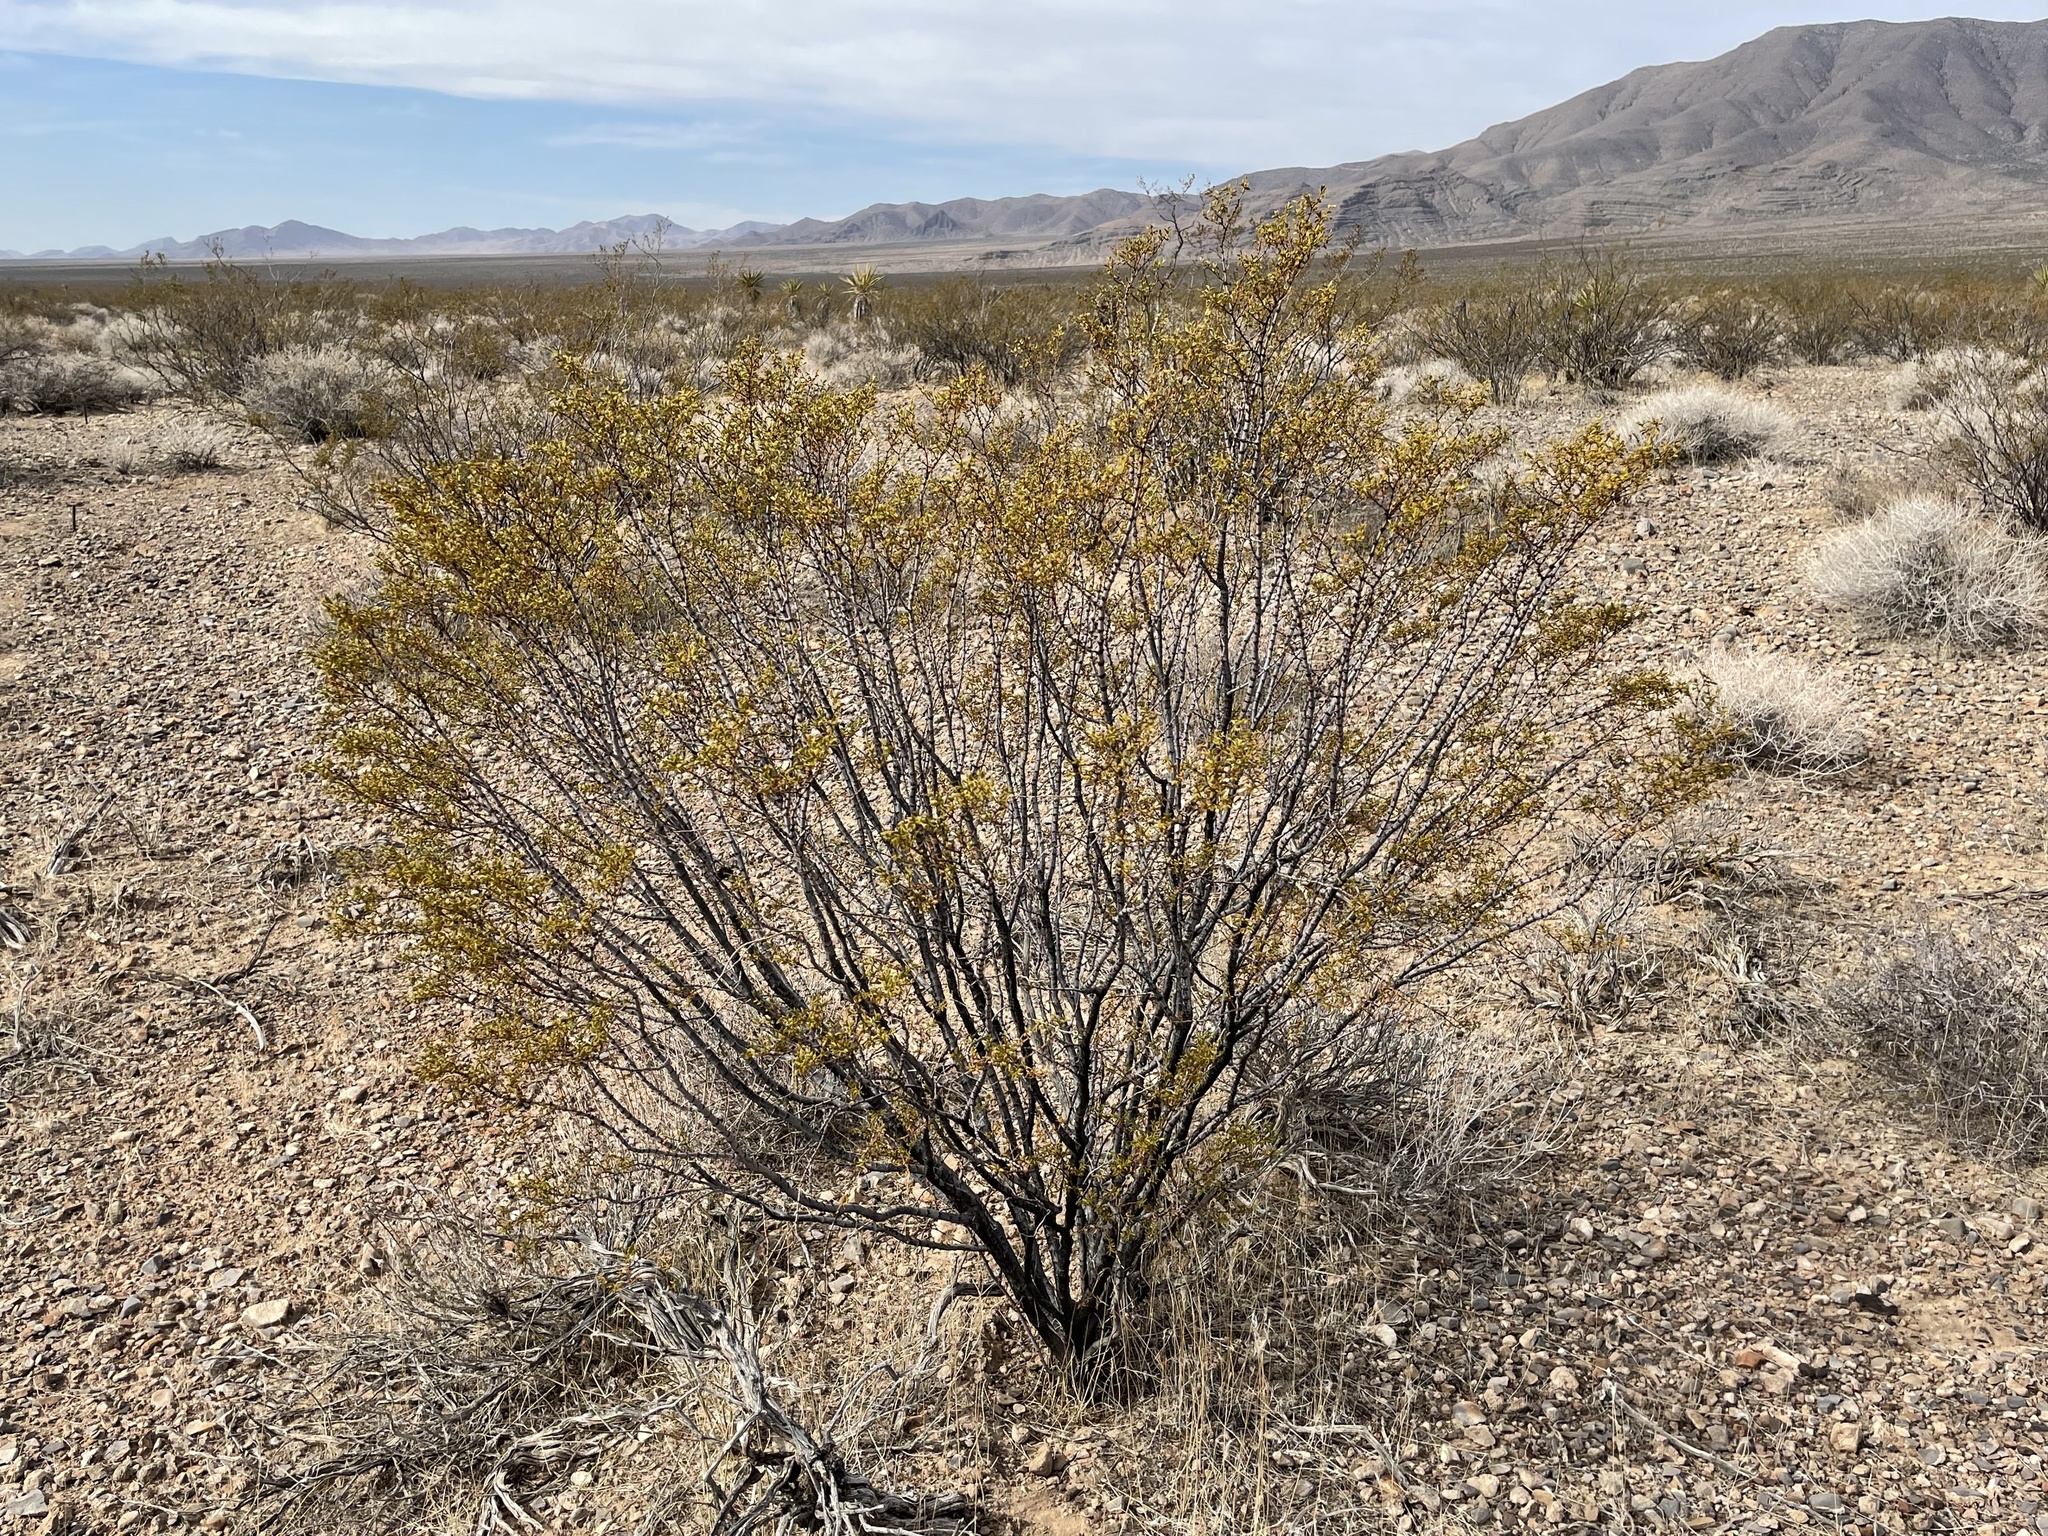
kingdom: Plantae
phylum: Tracheophyta
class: Magnoliopsida
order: Zygophyllales
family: Zygophyllaceae
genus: Larrea
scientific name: Larrea tridentata
